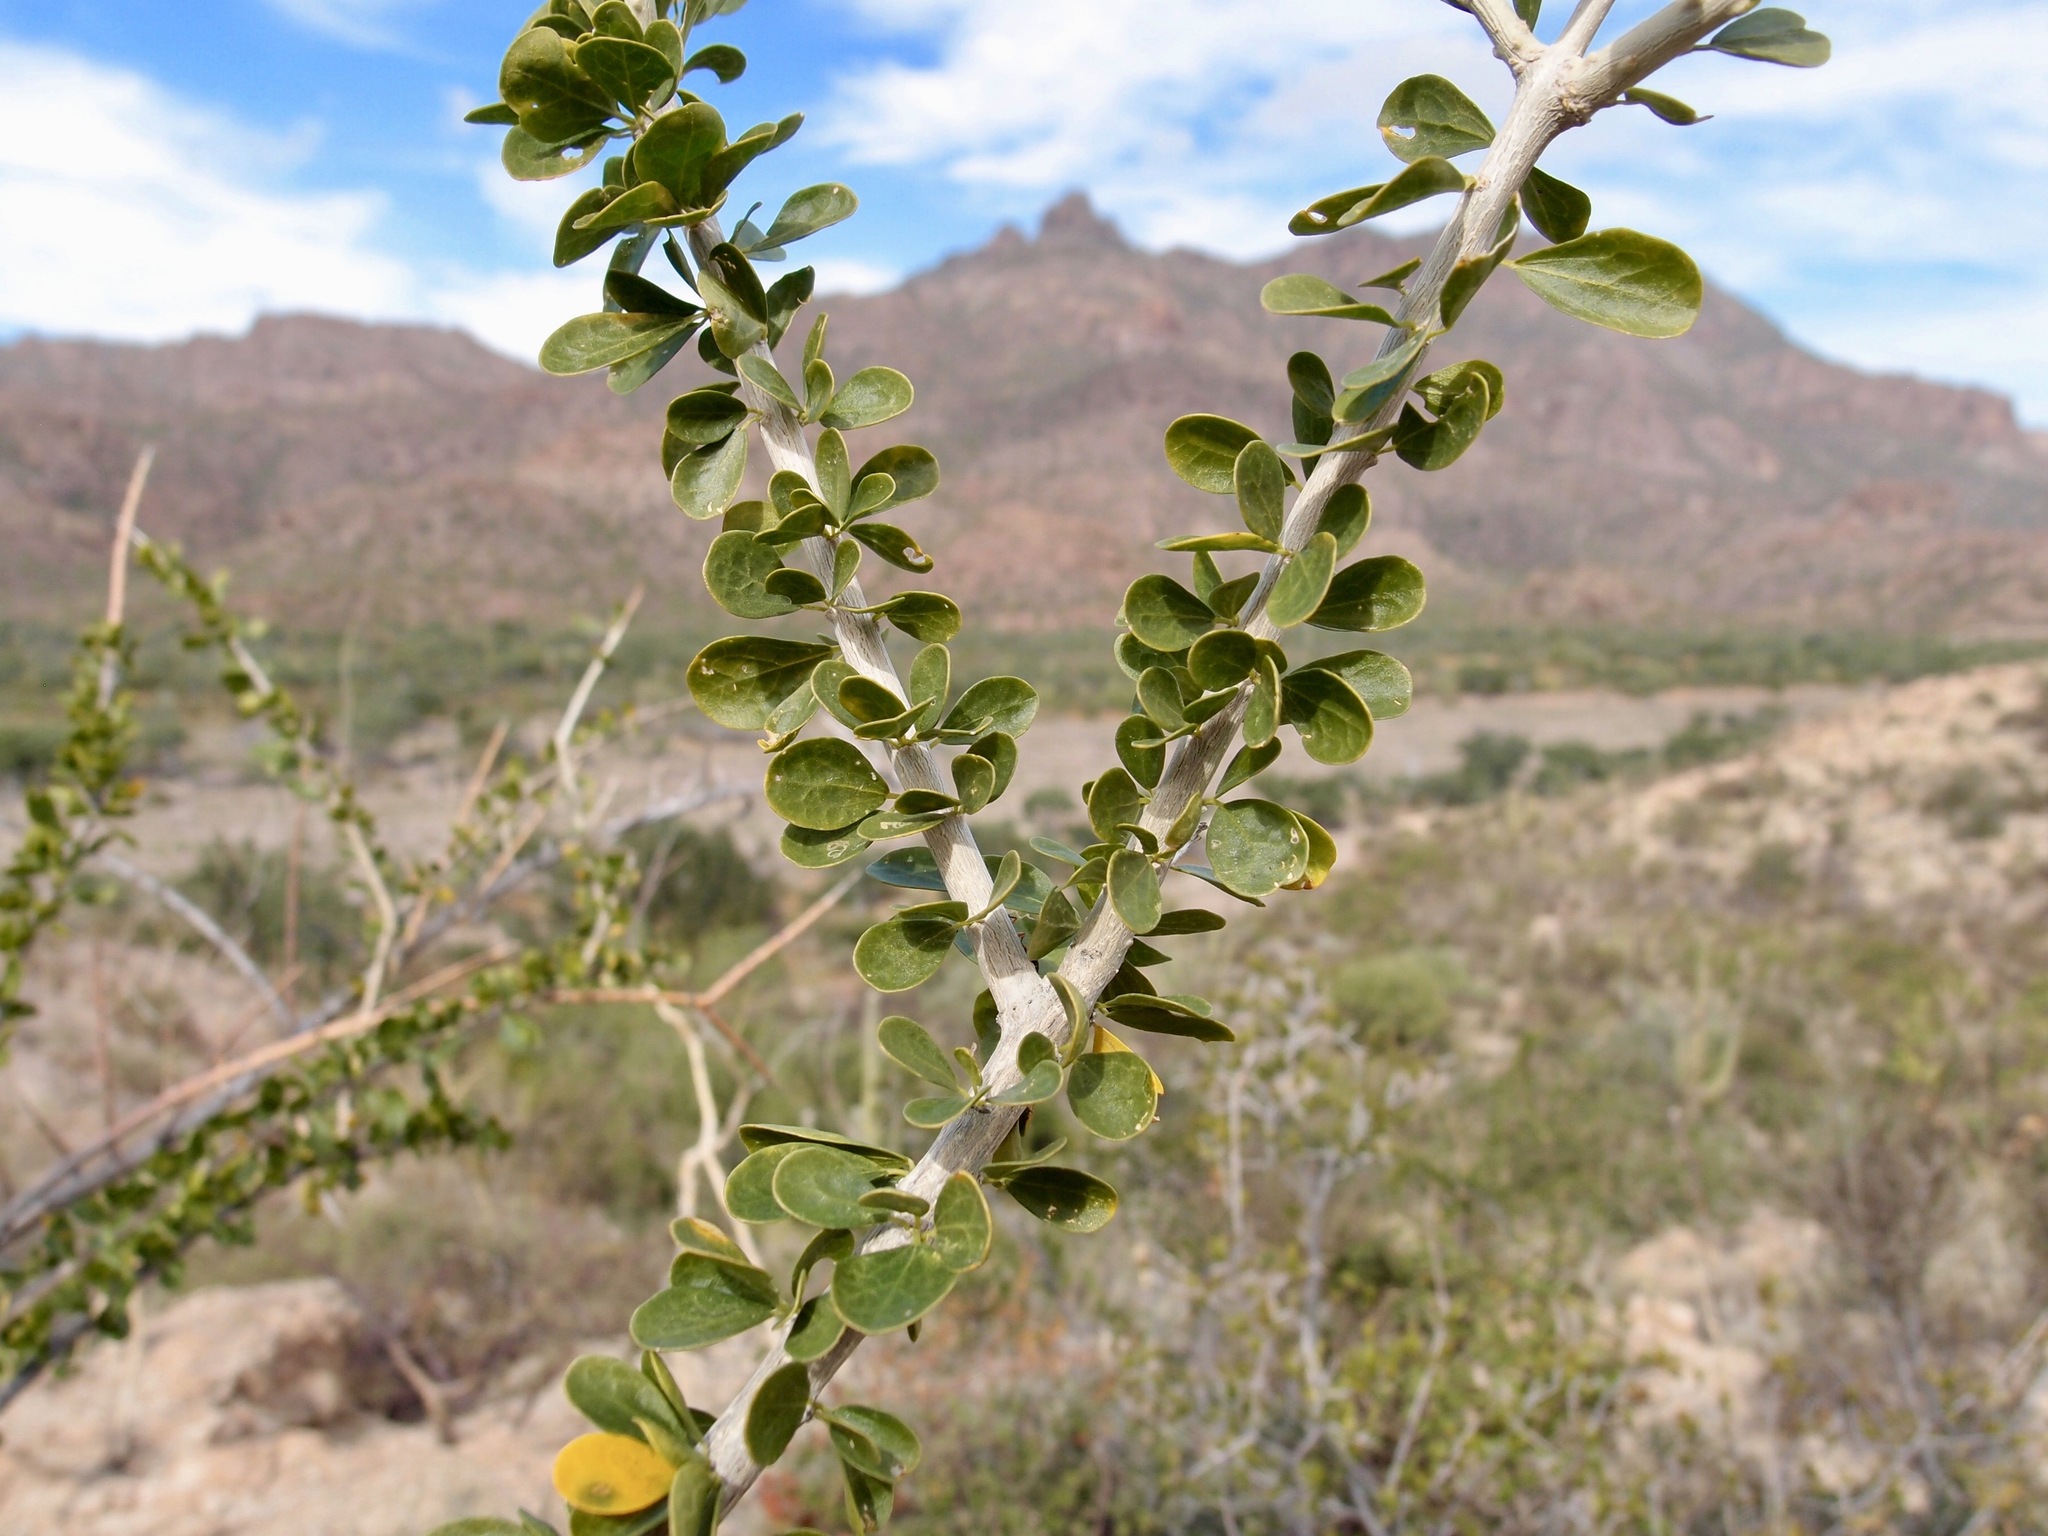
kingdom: Plantae
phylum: Tracheophyta
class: Magnoliopsida
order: Malpighiales
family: Euphorbiaceae
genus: Adelia
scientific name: Adelia obovata
